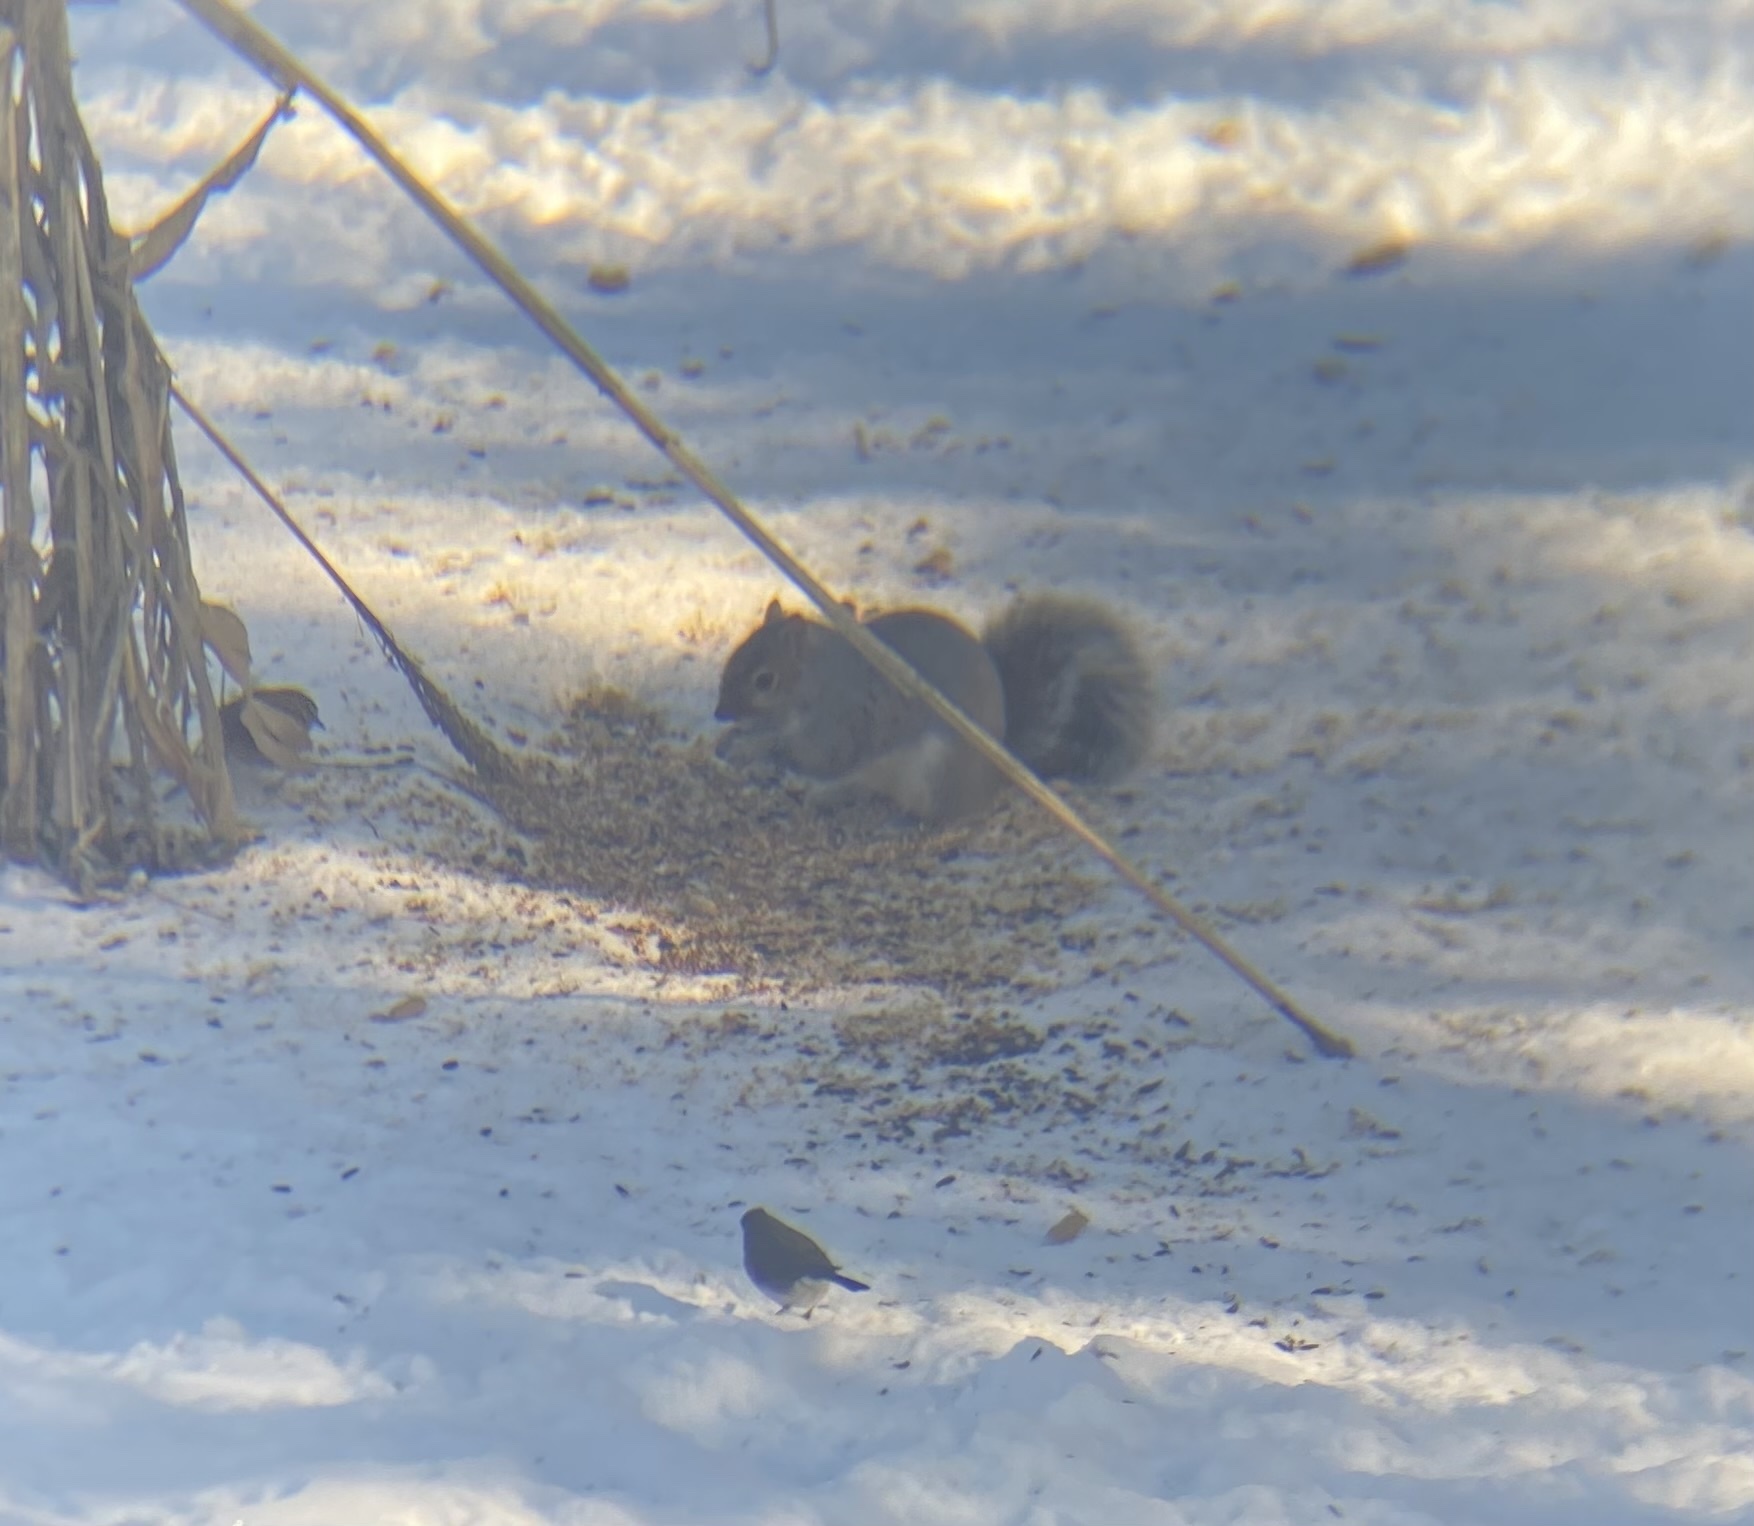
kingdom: Animalia
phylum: Chordata
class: Mammalia
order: Rodentia
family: Sciuridae
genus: Sciurus
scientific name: Sciurus carolinensis
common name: Eastern gray squirrel
